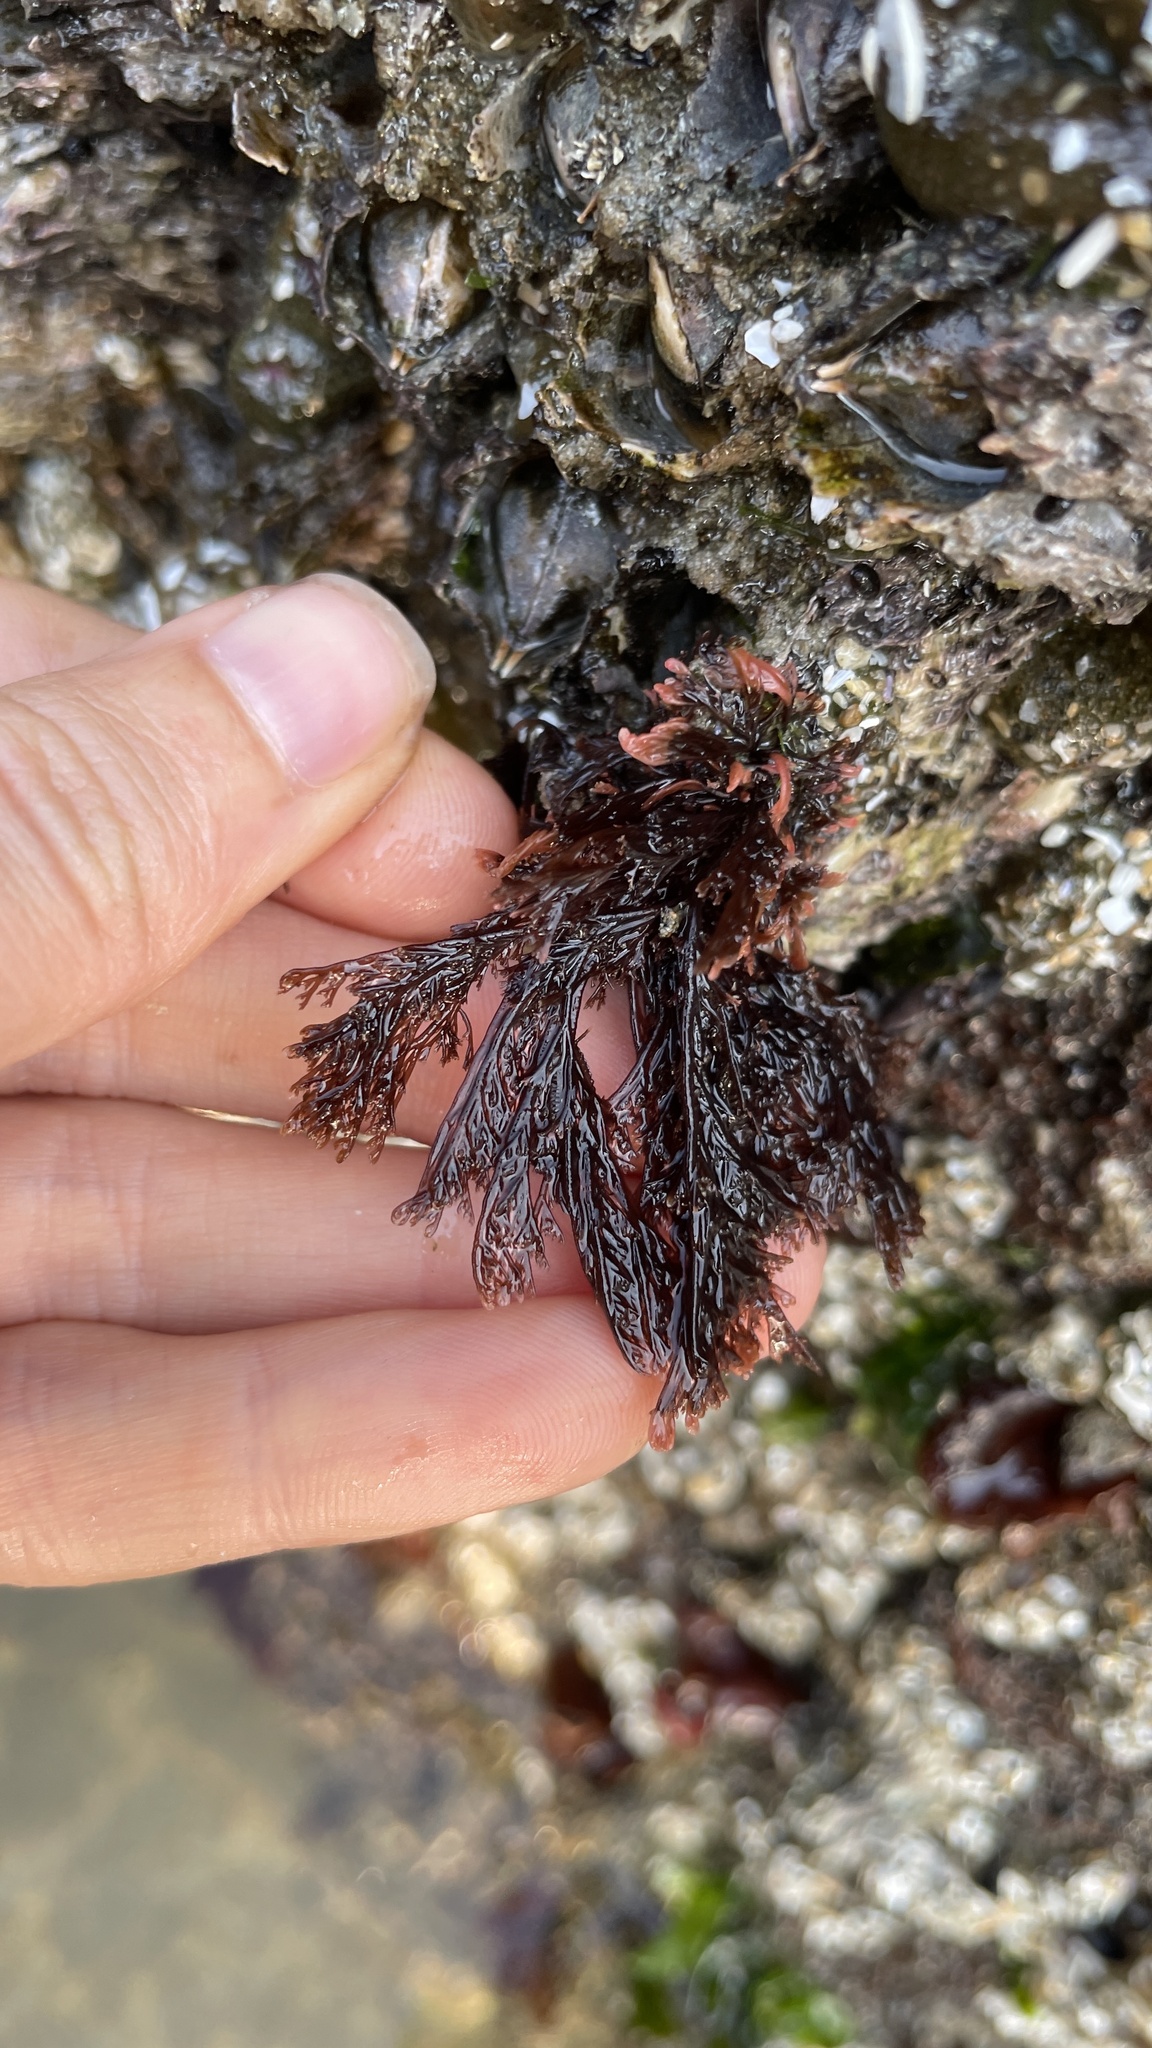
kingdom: Plantae
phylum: Rhodophyta
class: Florideophyceae
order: Ceramiales
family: Ceramiaceae
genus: Microcladia
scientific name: Microcladia borealis
